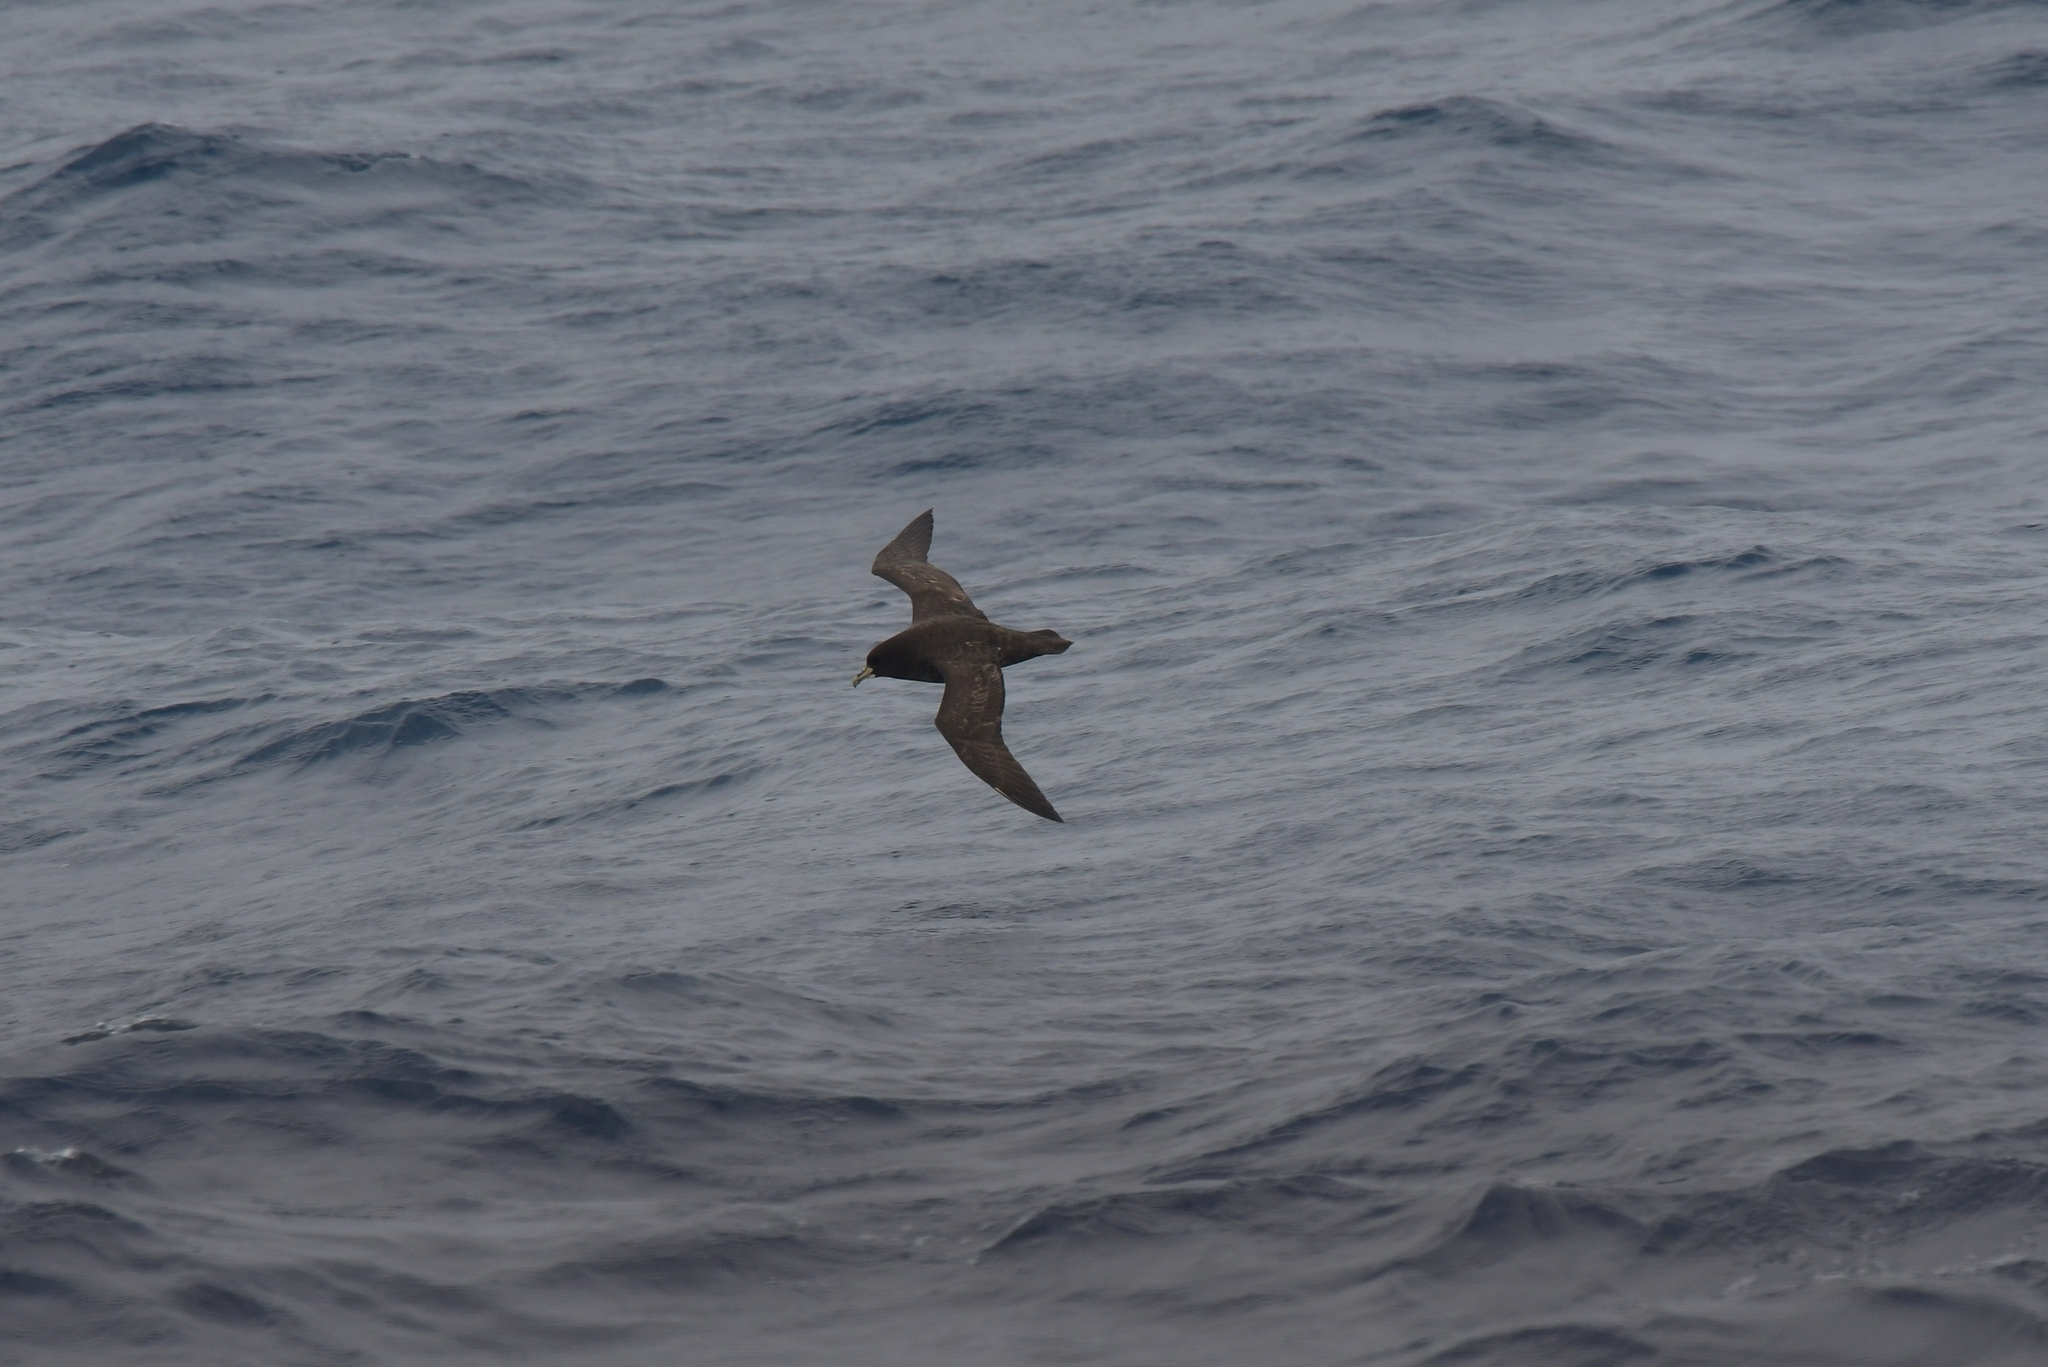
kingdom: Animalia
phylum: Chordata
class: Aves
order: Procellariiformes
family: Procellariidae
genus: Procellaria
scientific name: Procellaria aequinoctialis
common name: White-chinned petrel
